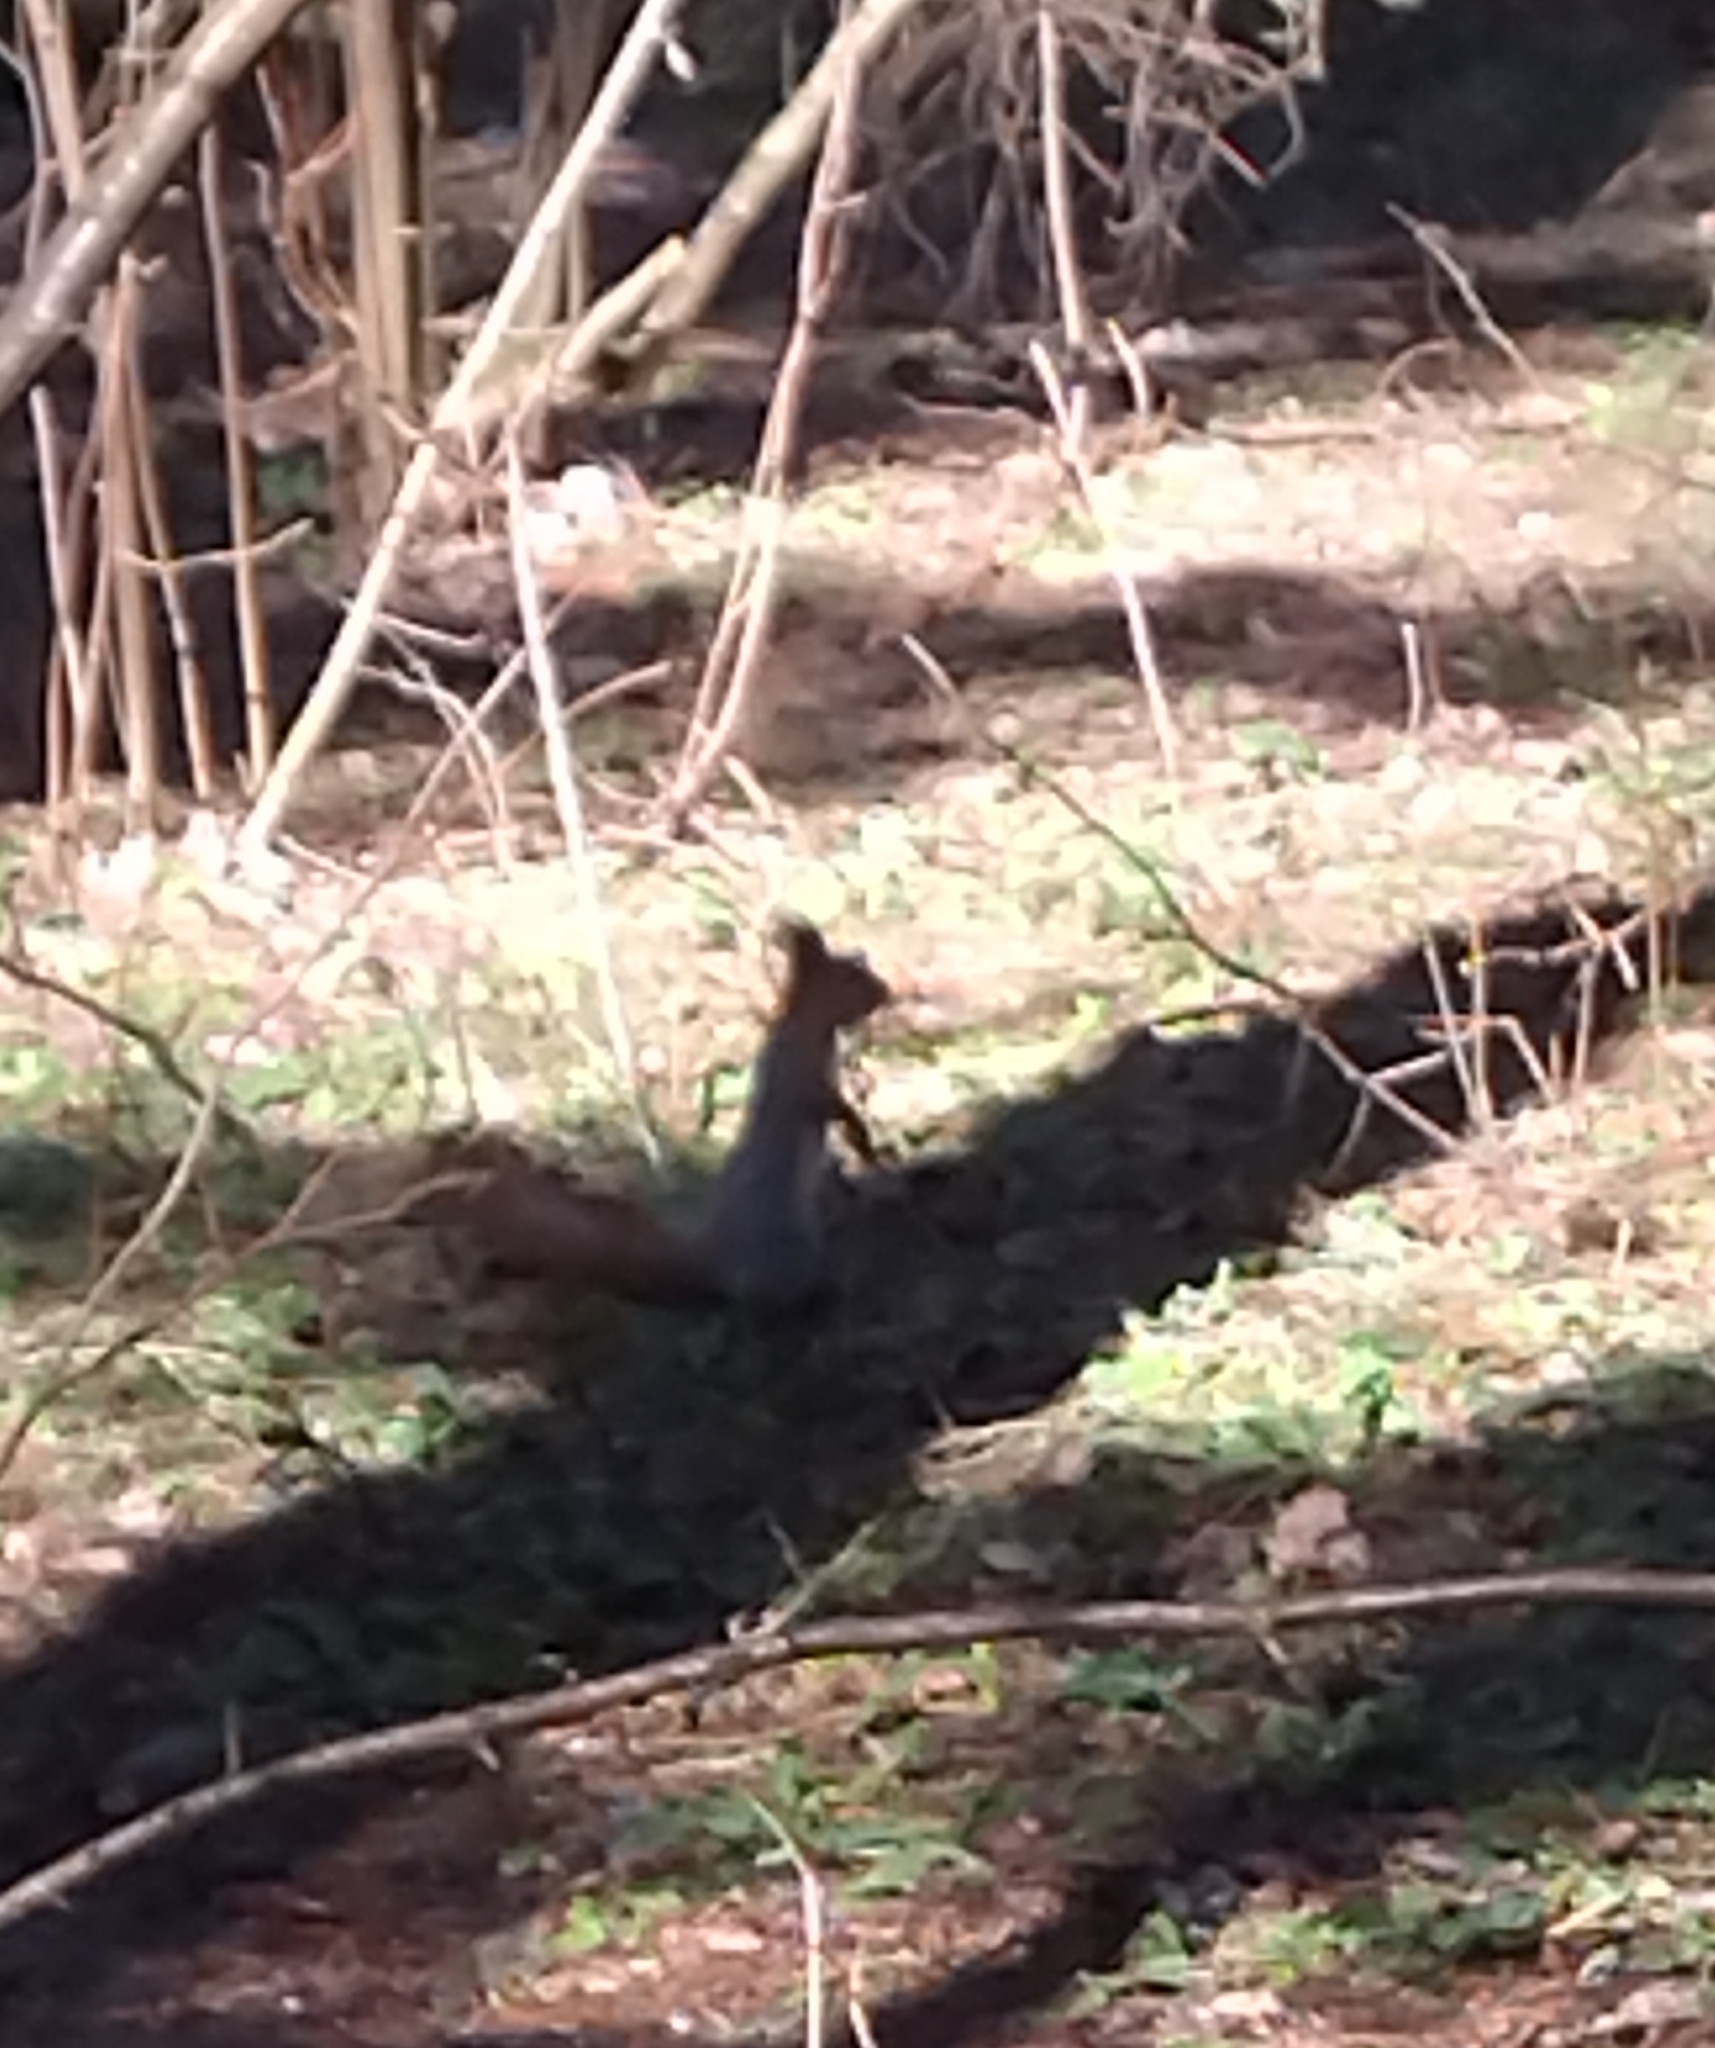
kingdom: Animalia
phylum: Chordata
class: Mammalia
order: Rodentia
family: Sciuridae
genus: Sciurus
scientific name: Sciurus vulgaris
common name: Eurasian red squirrel
